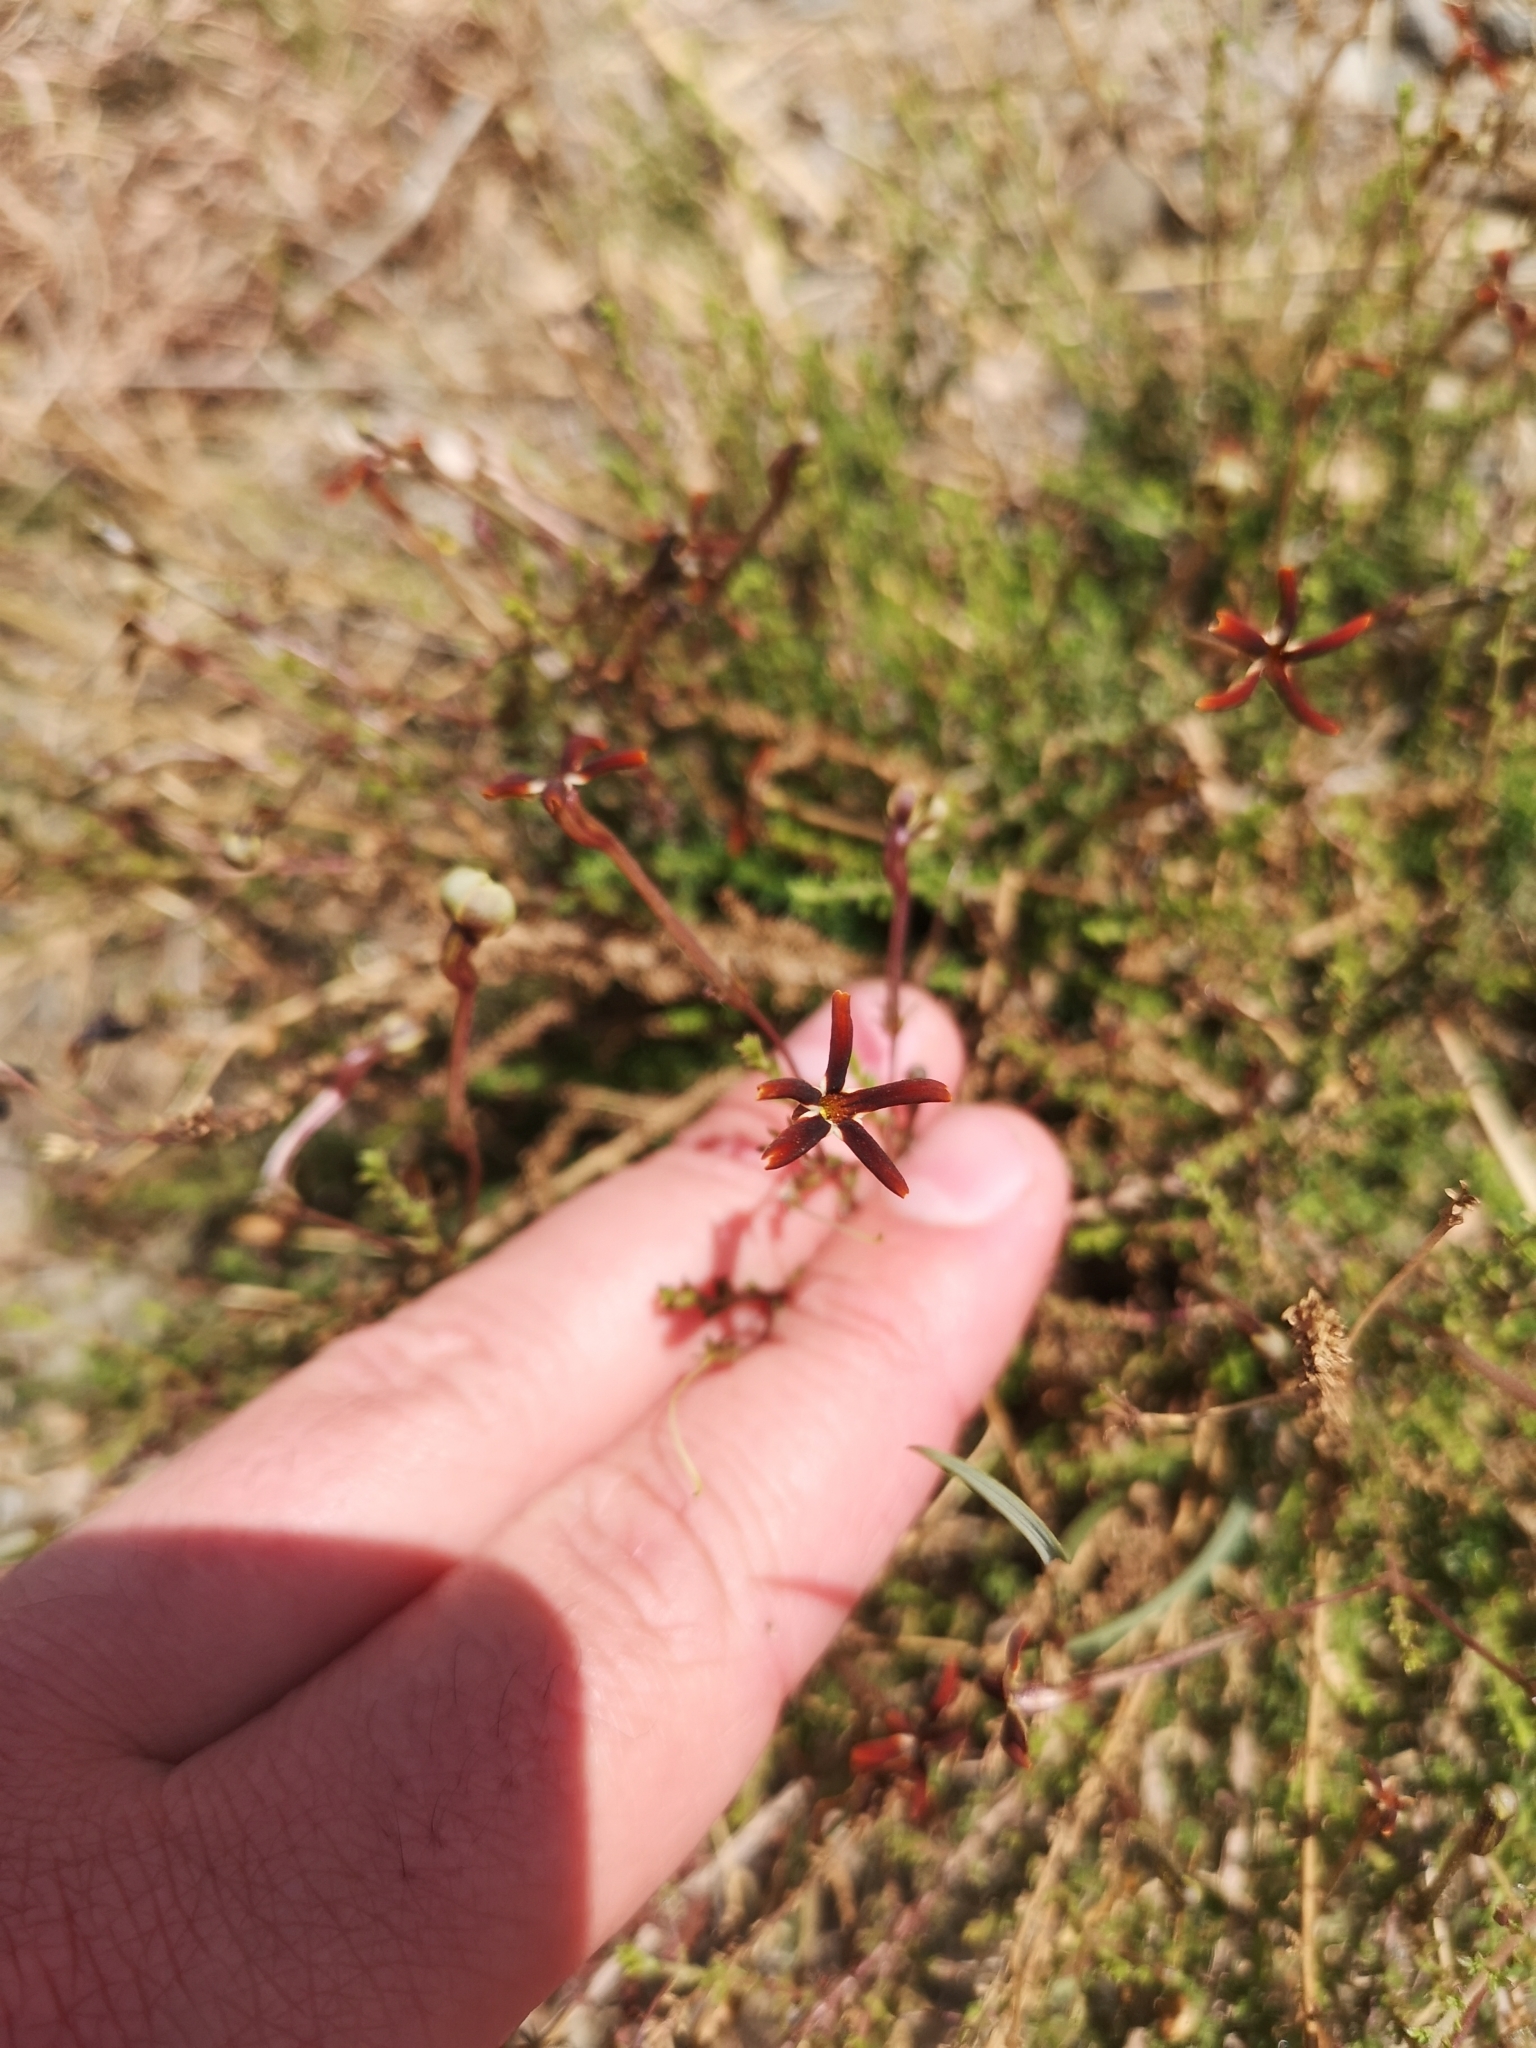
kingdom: Plantae
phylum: Tracheophyta
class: Magnoliopsida
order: Lamiales
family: Scrophulariaceae
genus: Jamesbrittenia
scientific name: Jamesbrittenia atropurpurea
